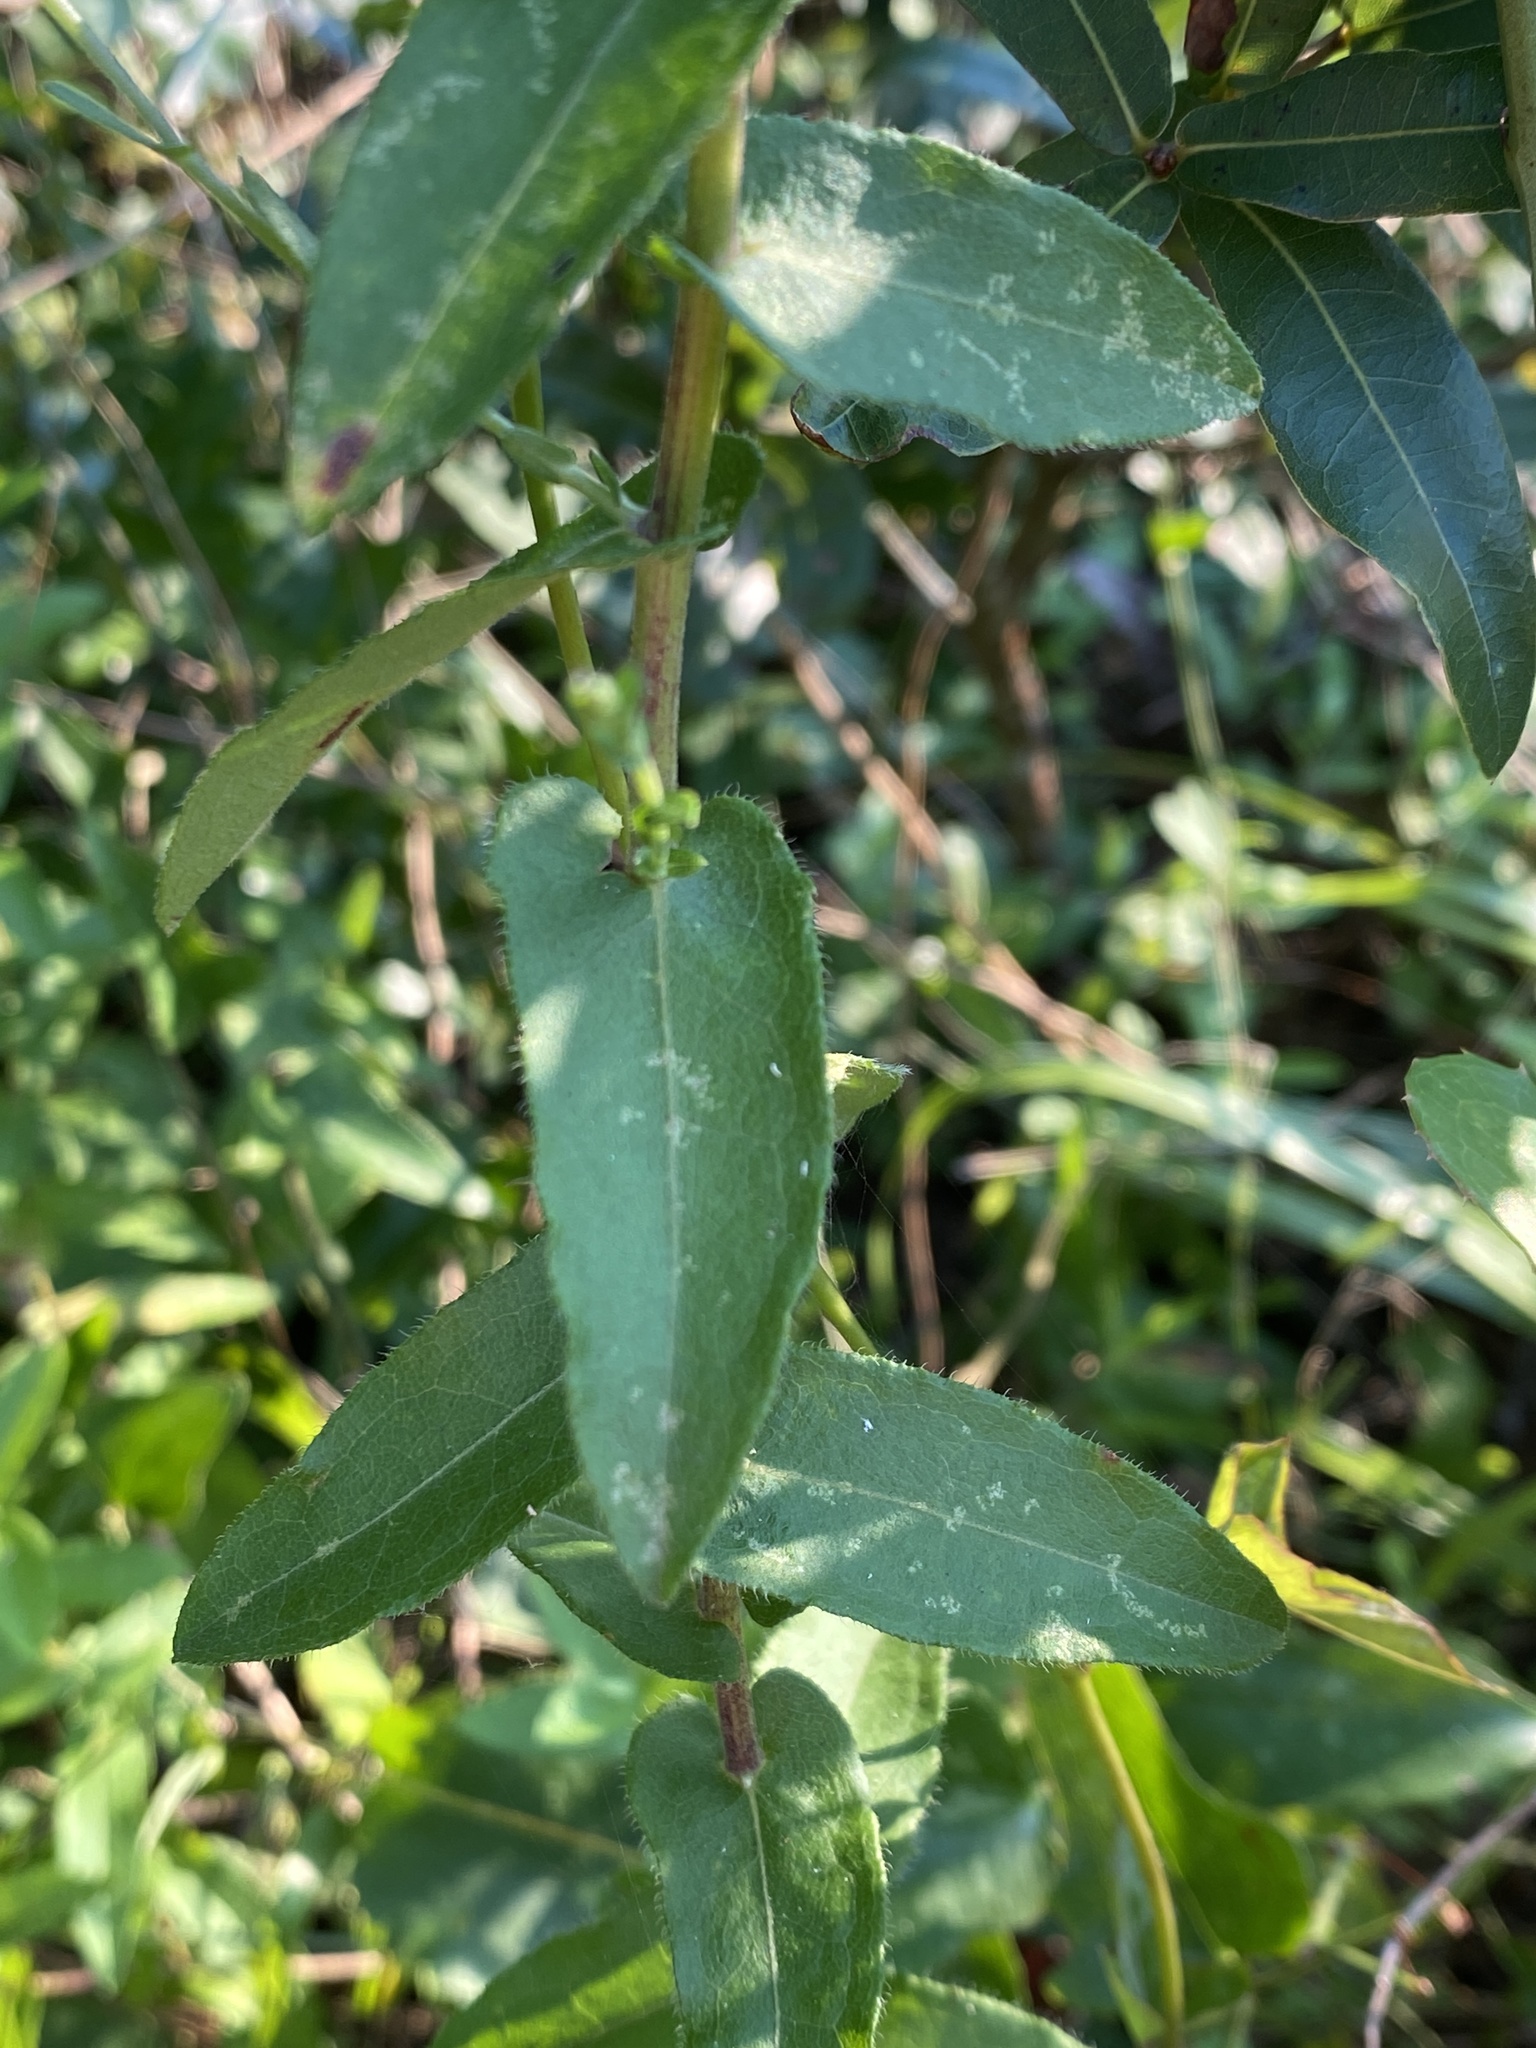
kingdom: Plantae
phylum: Tracheophyta
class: Magnoliopsida
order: Asterales
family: Asteraceae
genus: Symphyotrichum
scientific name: Symphyotrichum patens
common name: Late purple aster
